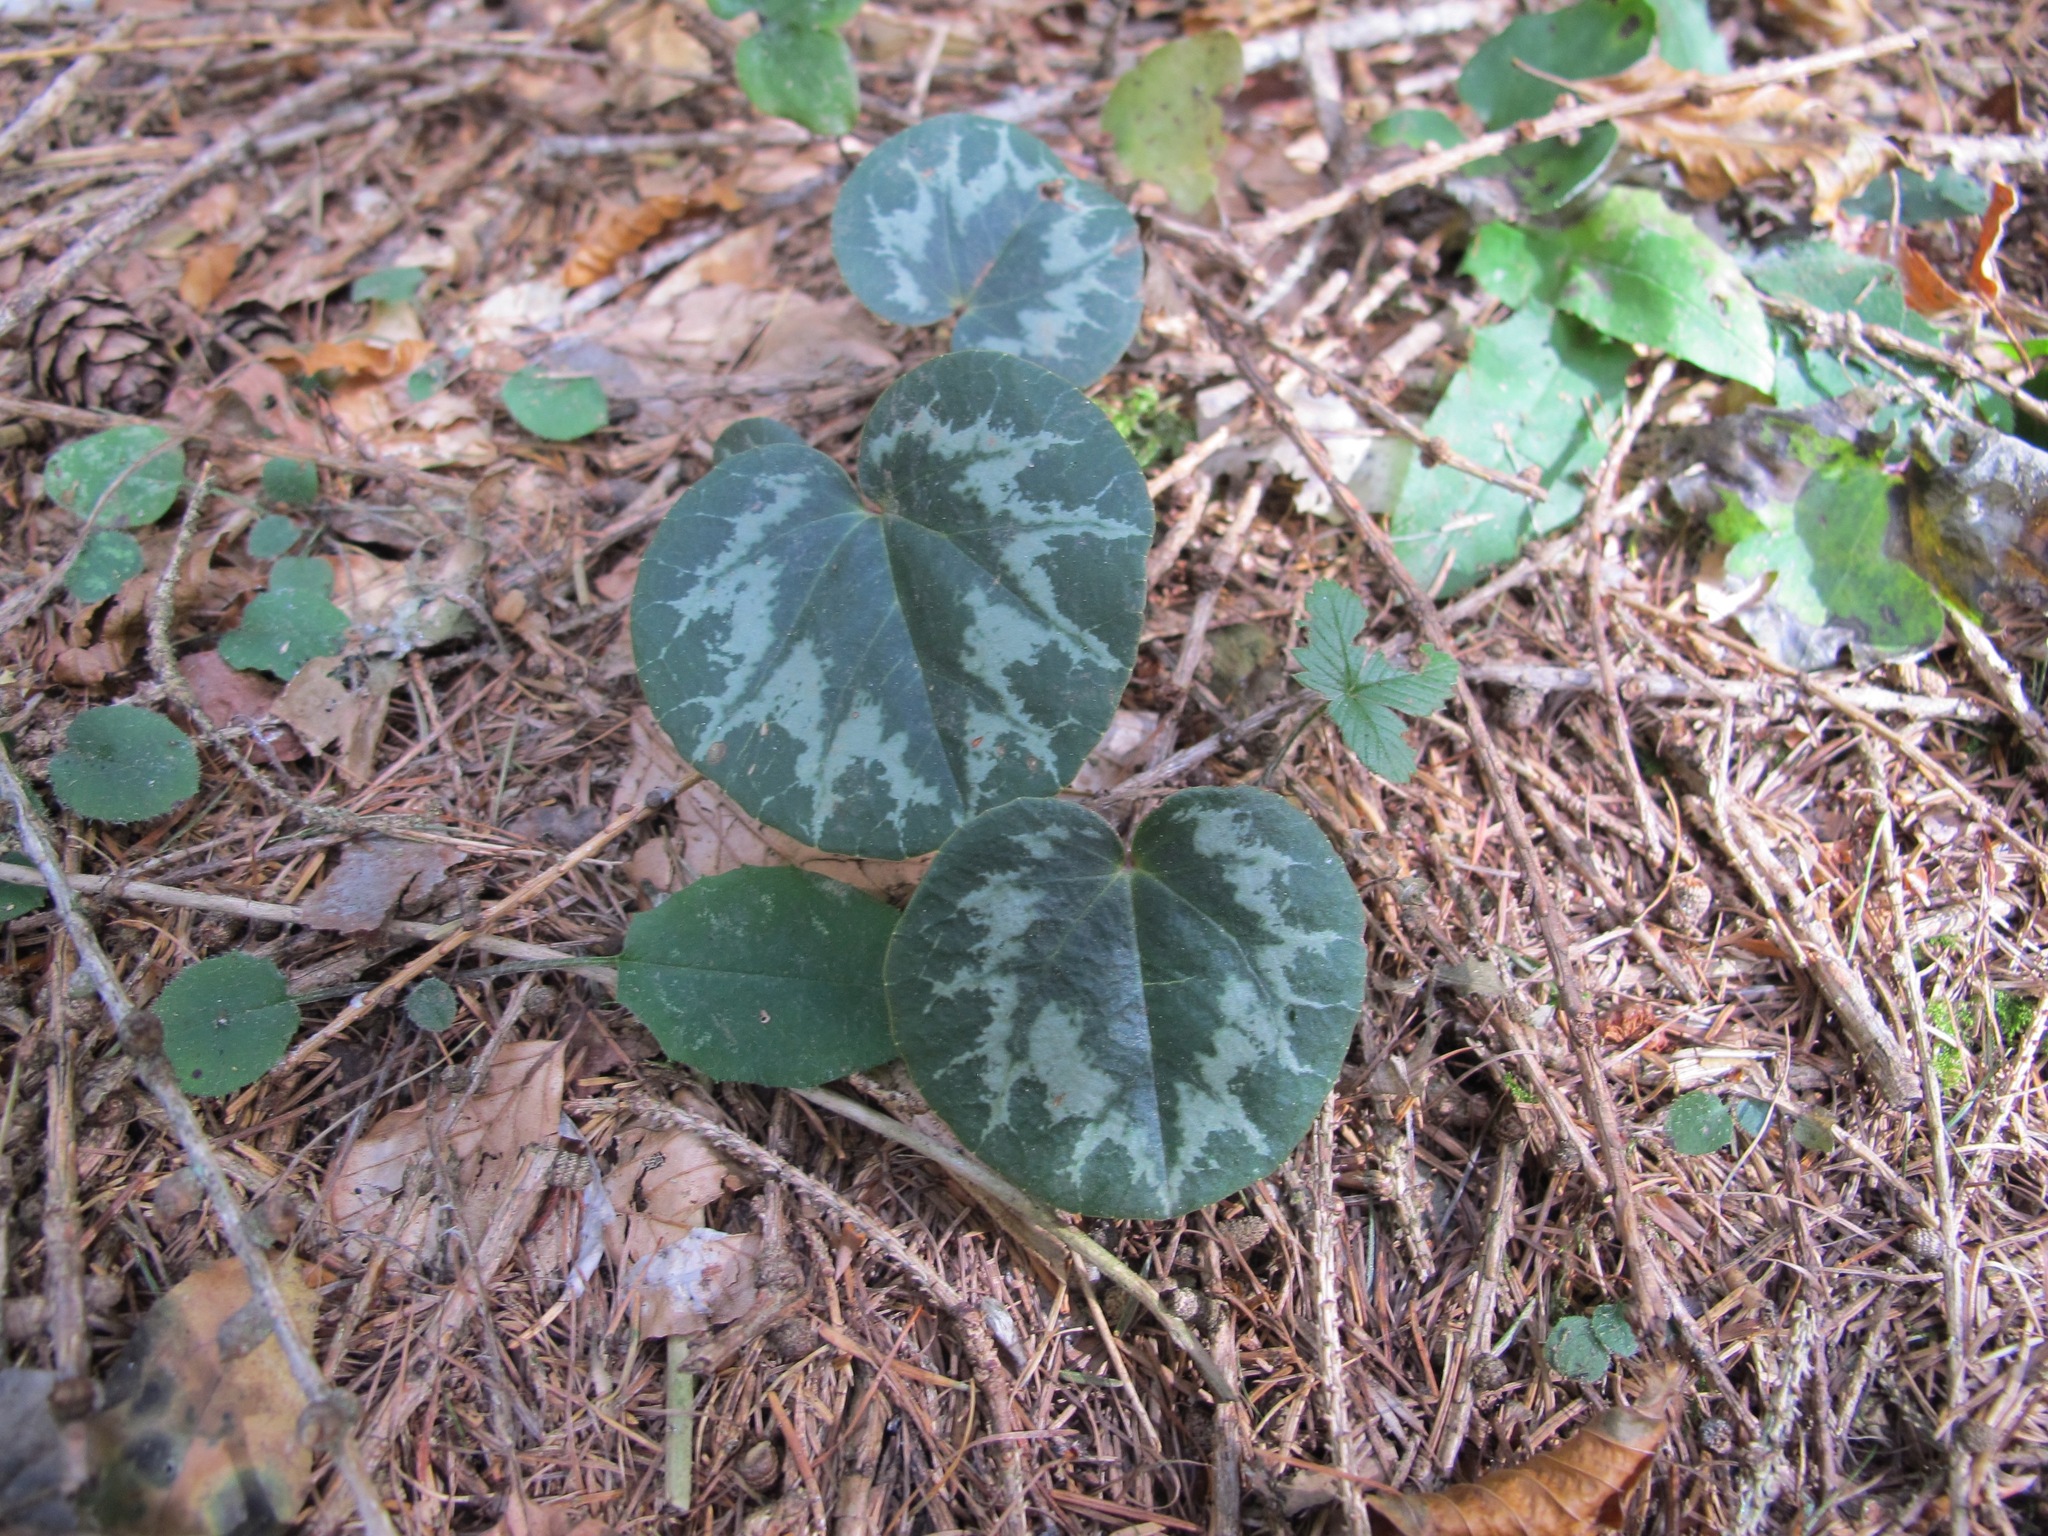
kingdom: Plantae
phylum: Tracheophyta
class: Magnoliopsida
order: Ericales
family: Primulaceae
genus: Cyclamen
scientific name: Cyclamen purpurascens
